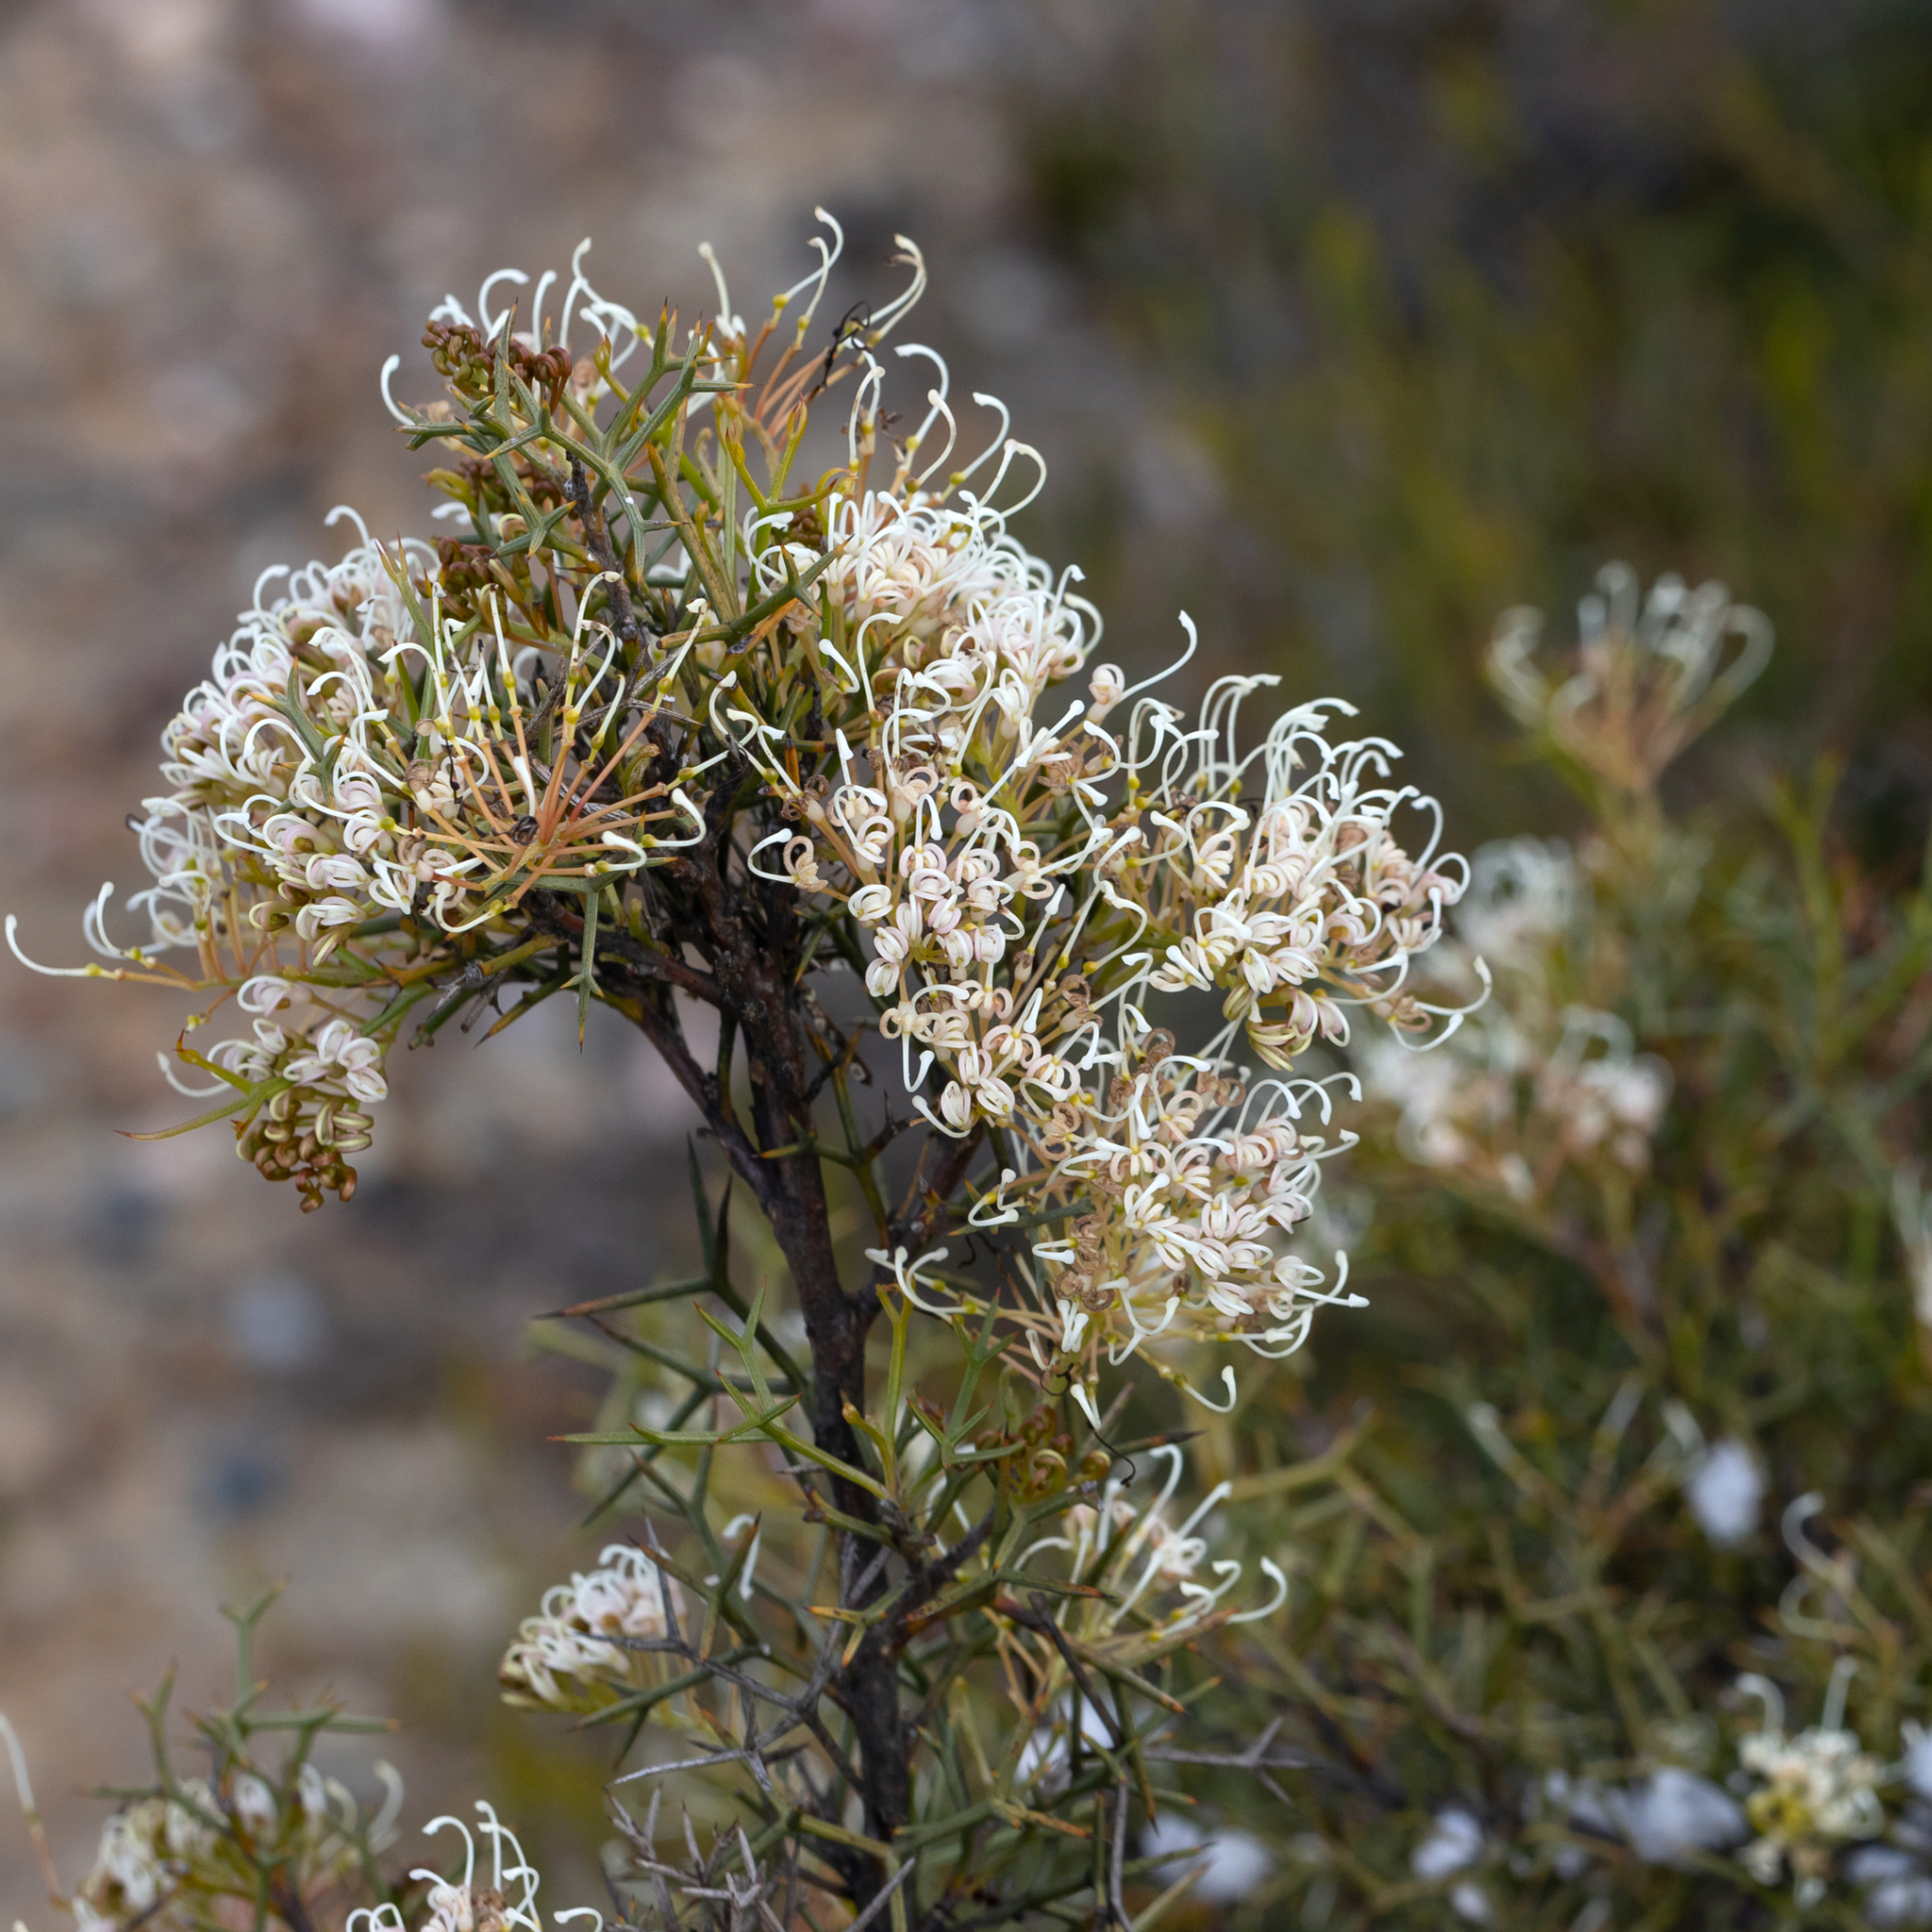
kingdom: Plantae
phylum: Tracheophyta
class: Magnoliopsida
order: Proteales
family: Proteaceae
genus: Hakea
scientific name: Hakea lissocarpha
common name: Honey bush
